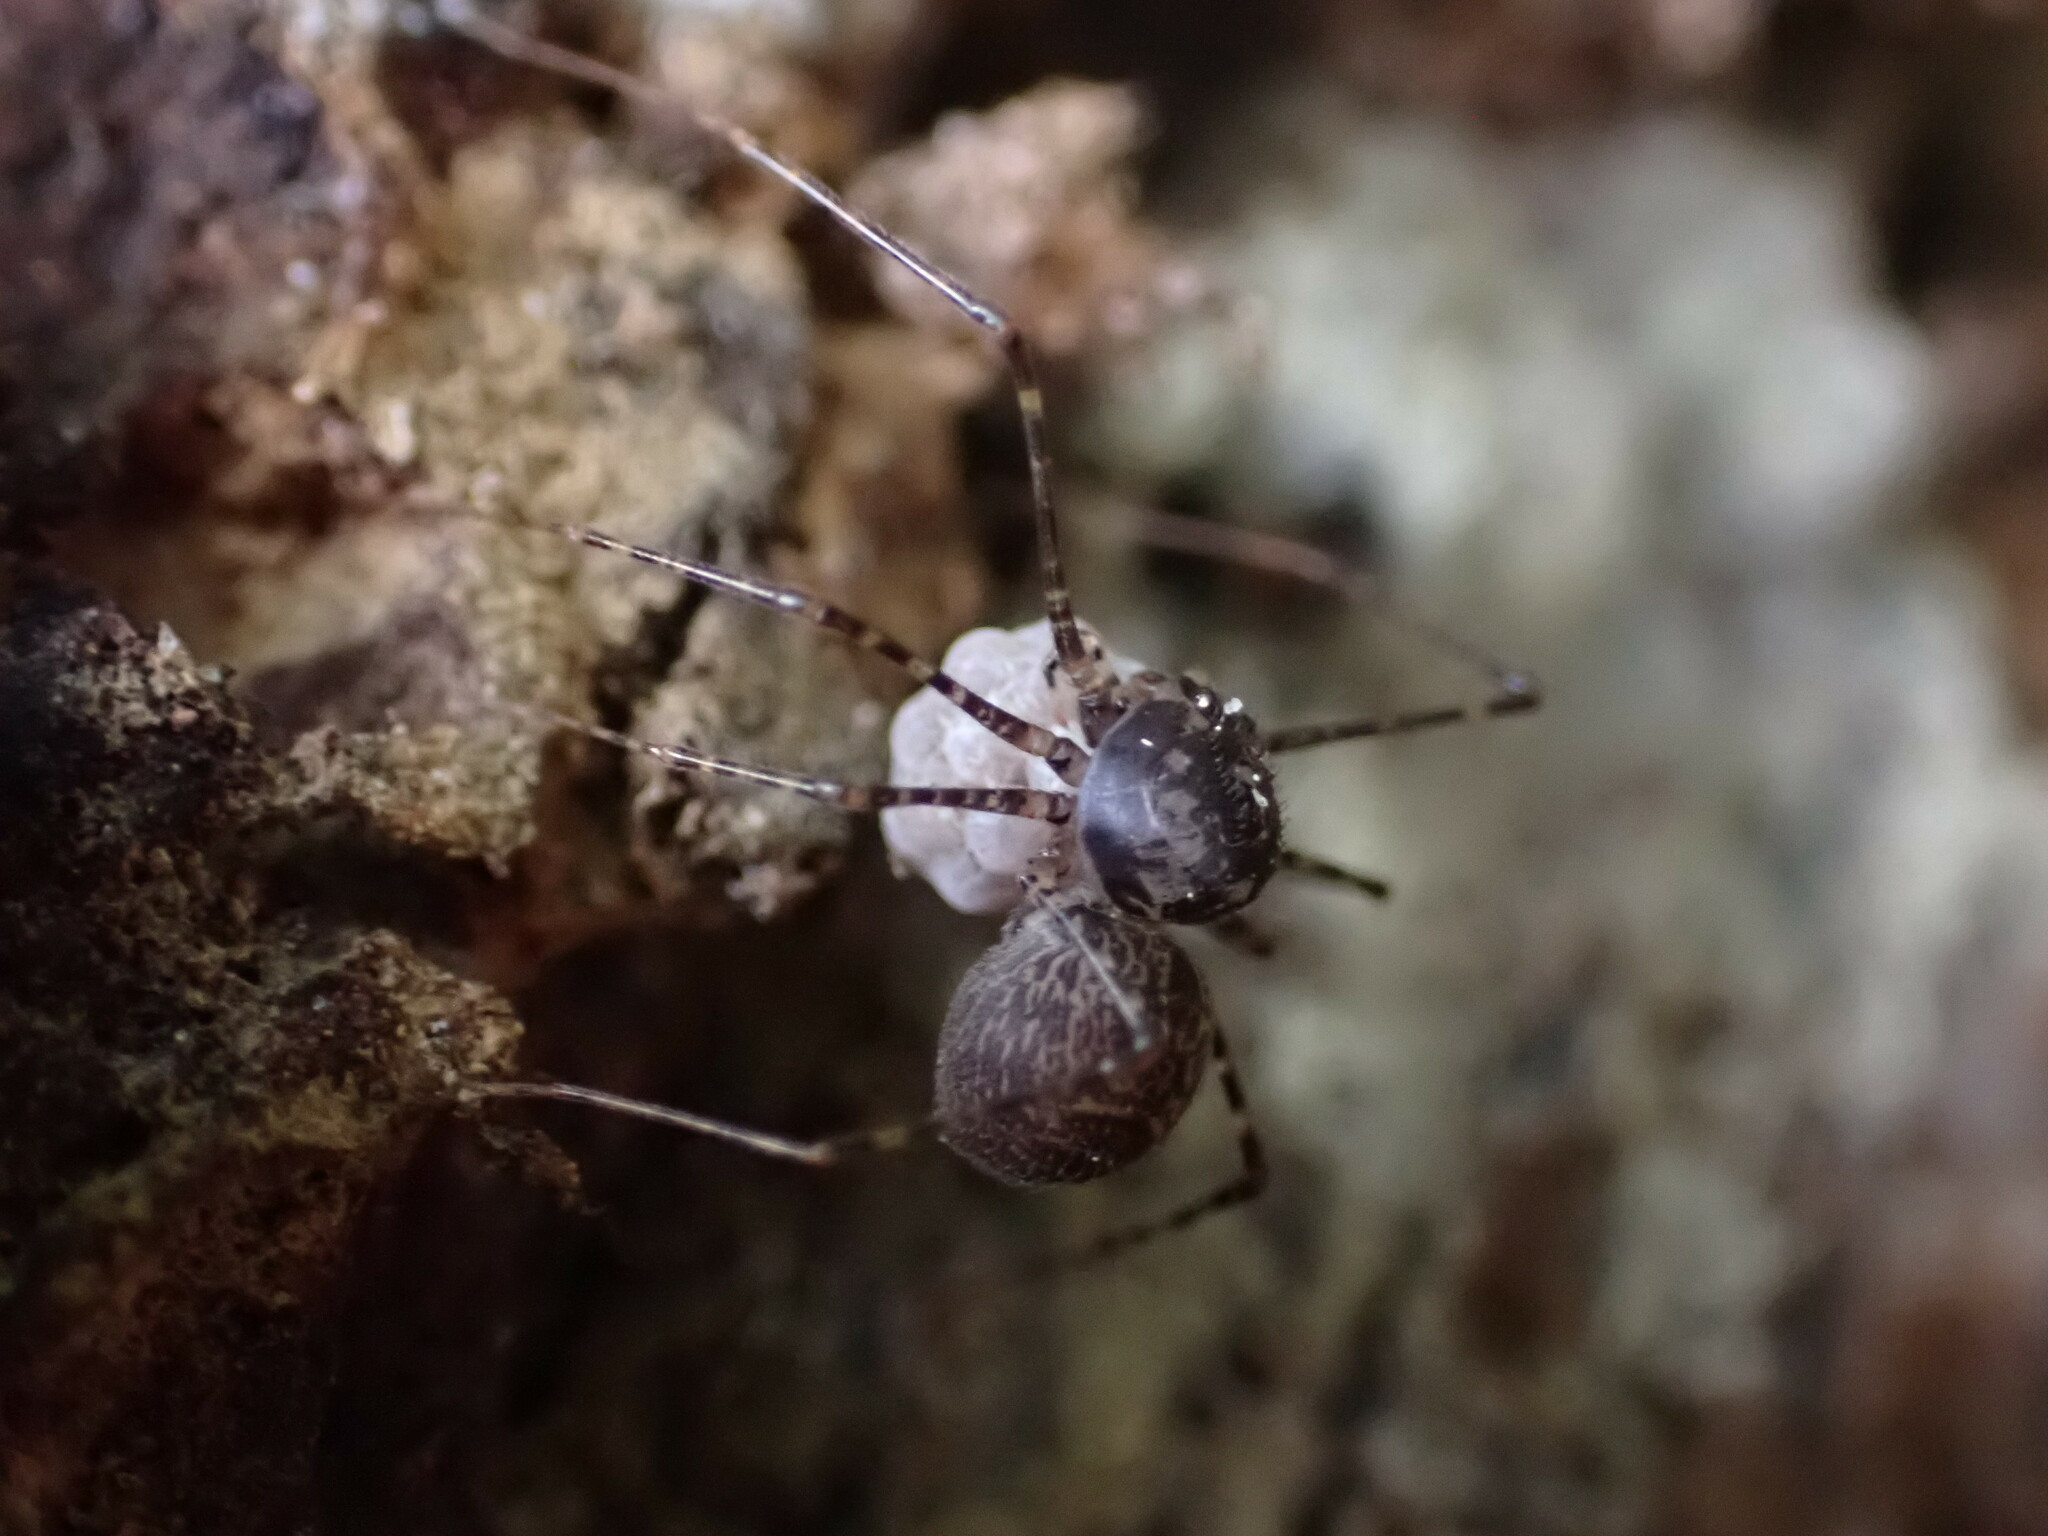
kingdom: Animalia
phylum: Arthropoda
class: Arachnida
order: Araneae
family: Scytodidae
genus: Scytodes
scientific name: Scytodes globula
